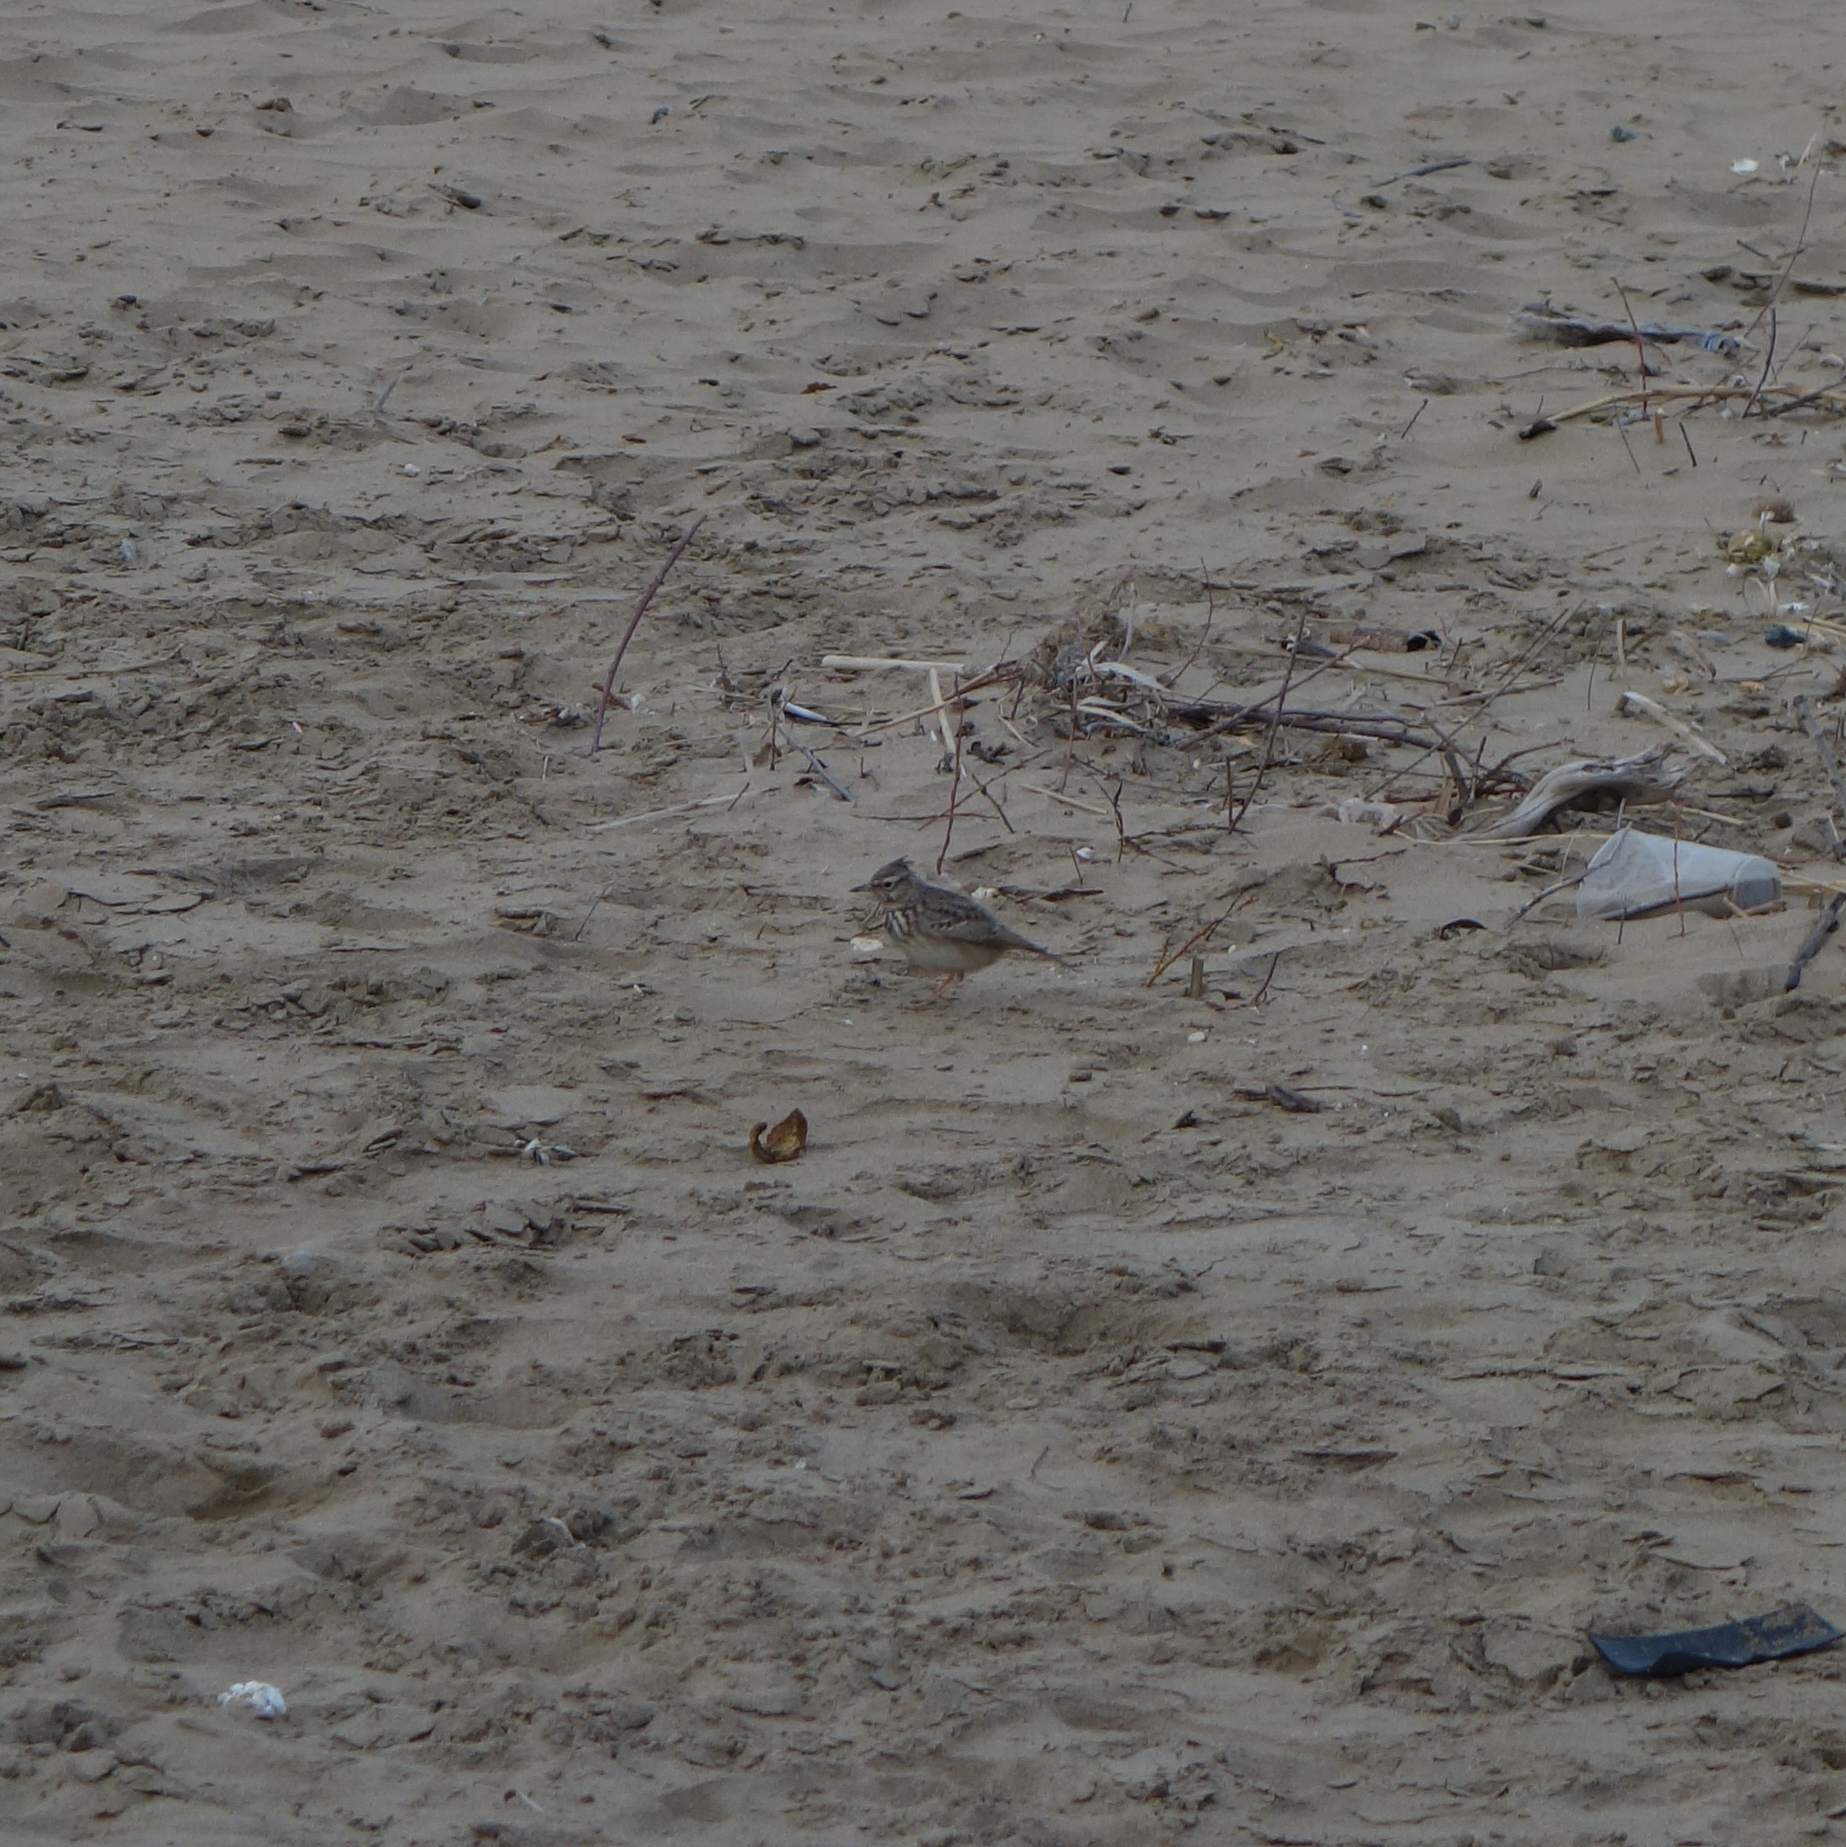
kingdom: Animalia
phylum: Chordata
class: Aves
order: Passeriformes
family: Alaudidae
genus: Galerida
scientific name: Galerida cristata
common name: Crested lark
